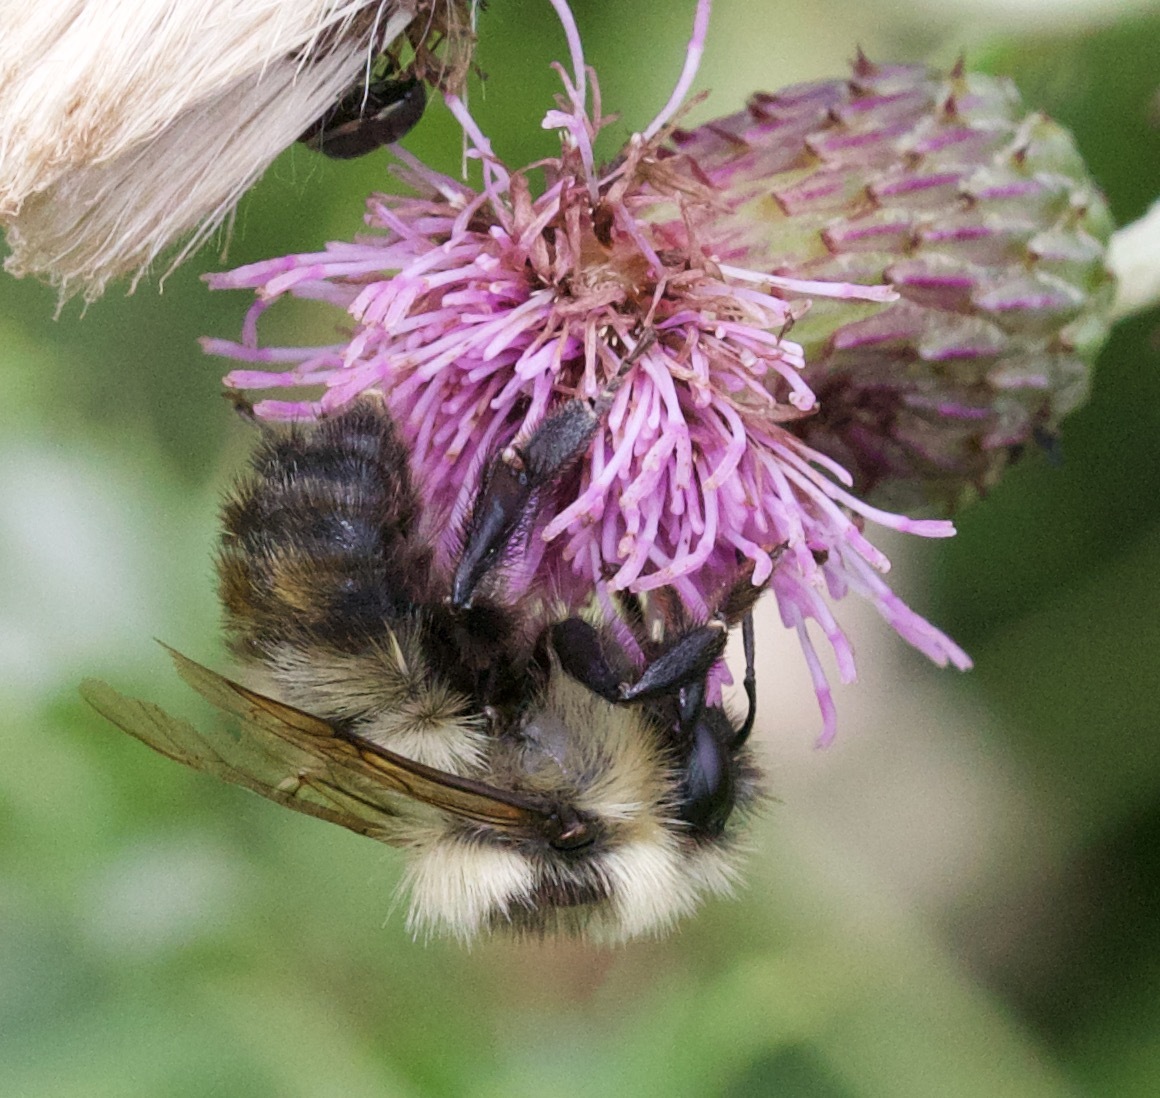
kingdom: Animalia
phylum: Arthropoda
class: Insecta
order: Hymenoptera
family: Apidae
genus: Bombus
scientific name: Bombus rufocinctus
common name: Red-belted bumble bee
